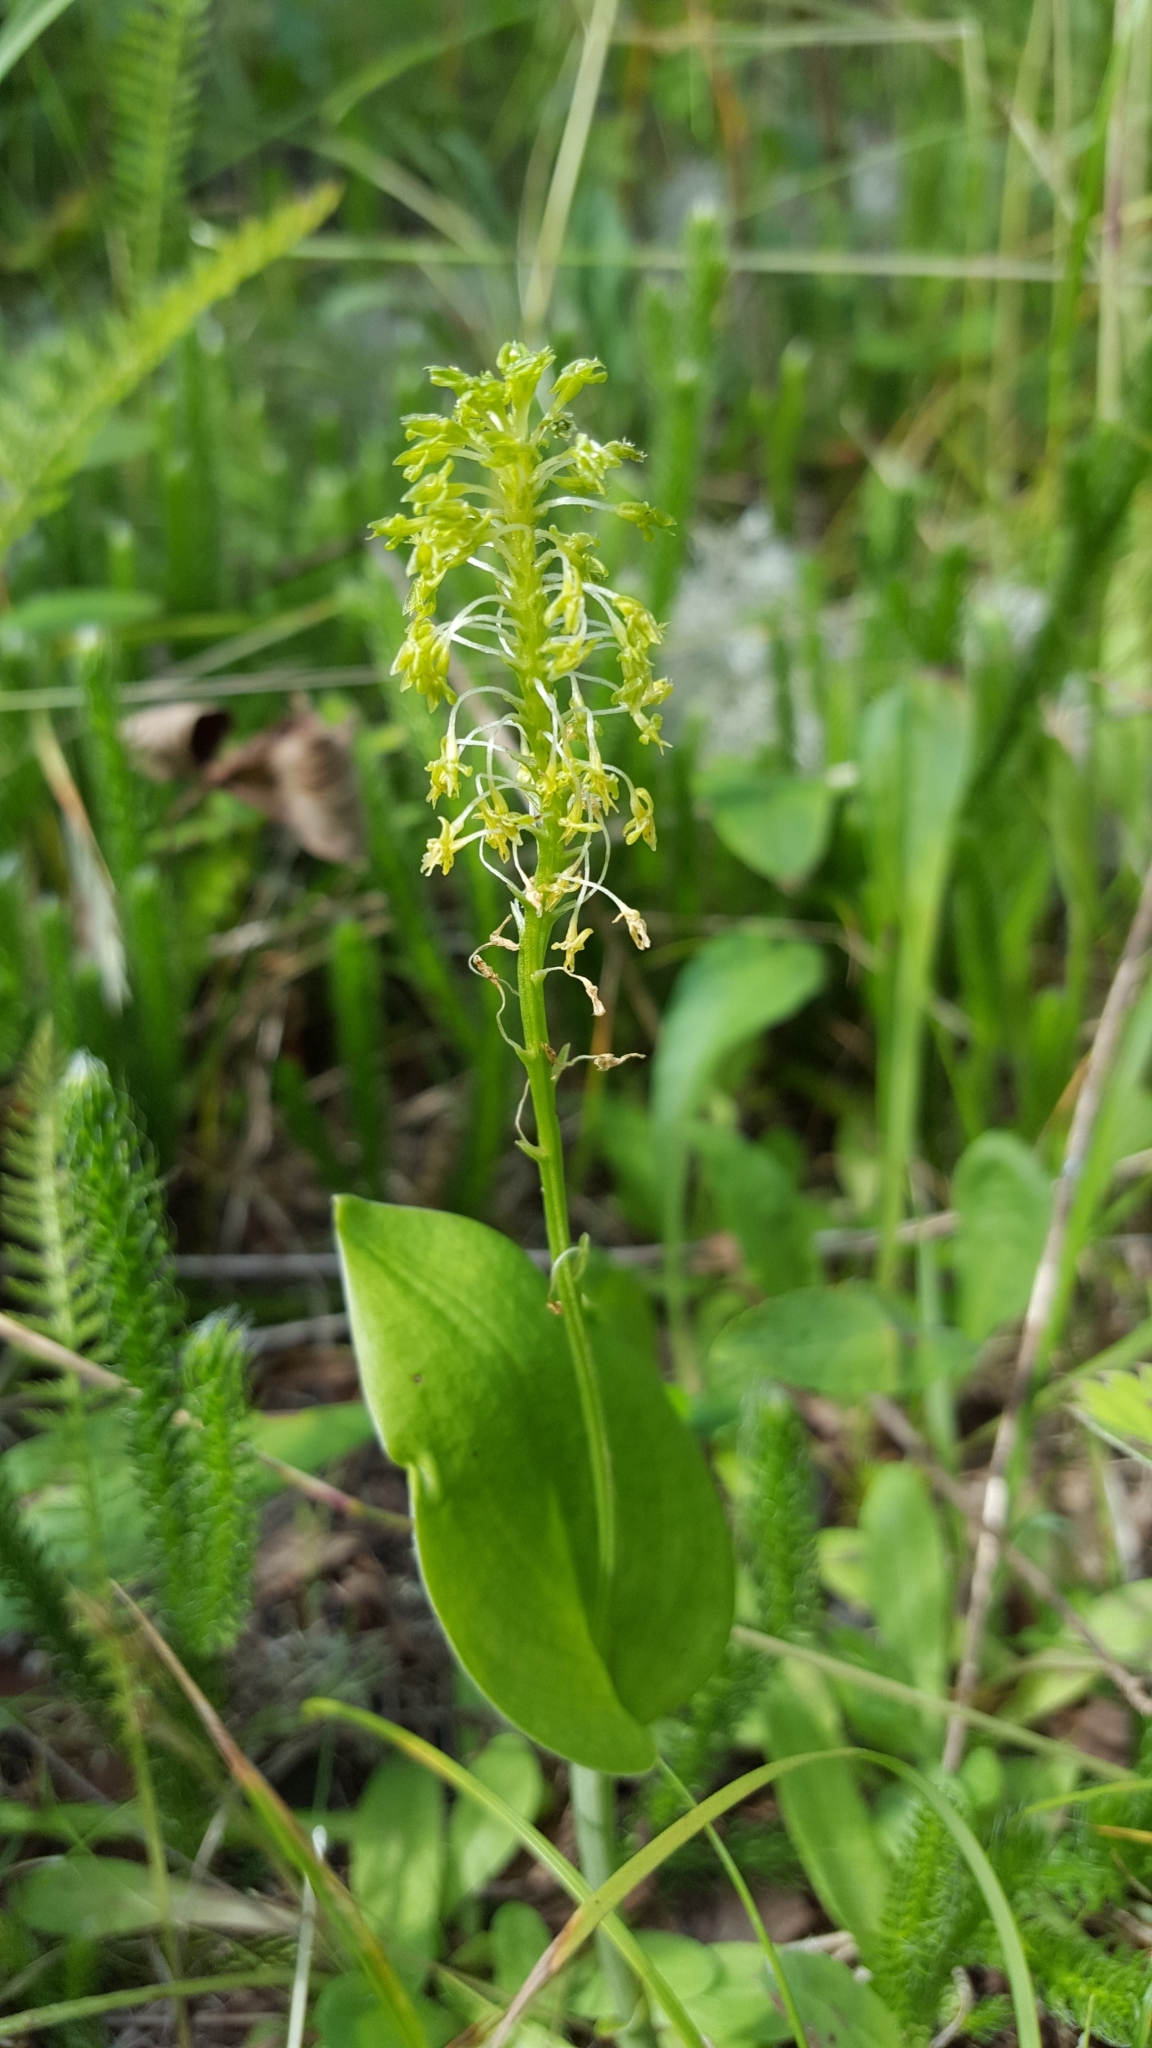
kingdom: Plantae
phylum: Tracheophyta
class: Liliopsida
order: Asparagales
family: Orchidaceae
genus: Malaxis
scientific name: Malaxis unifolia
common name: Green adder's-mouth
